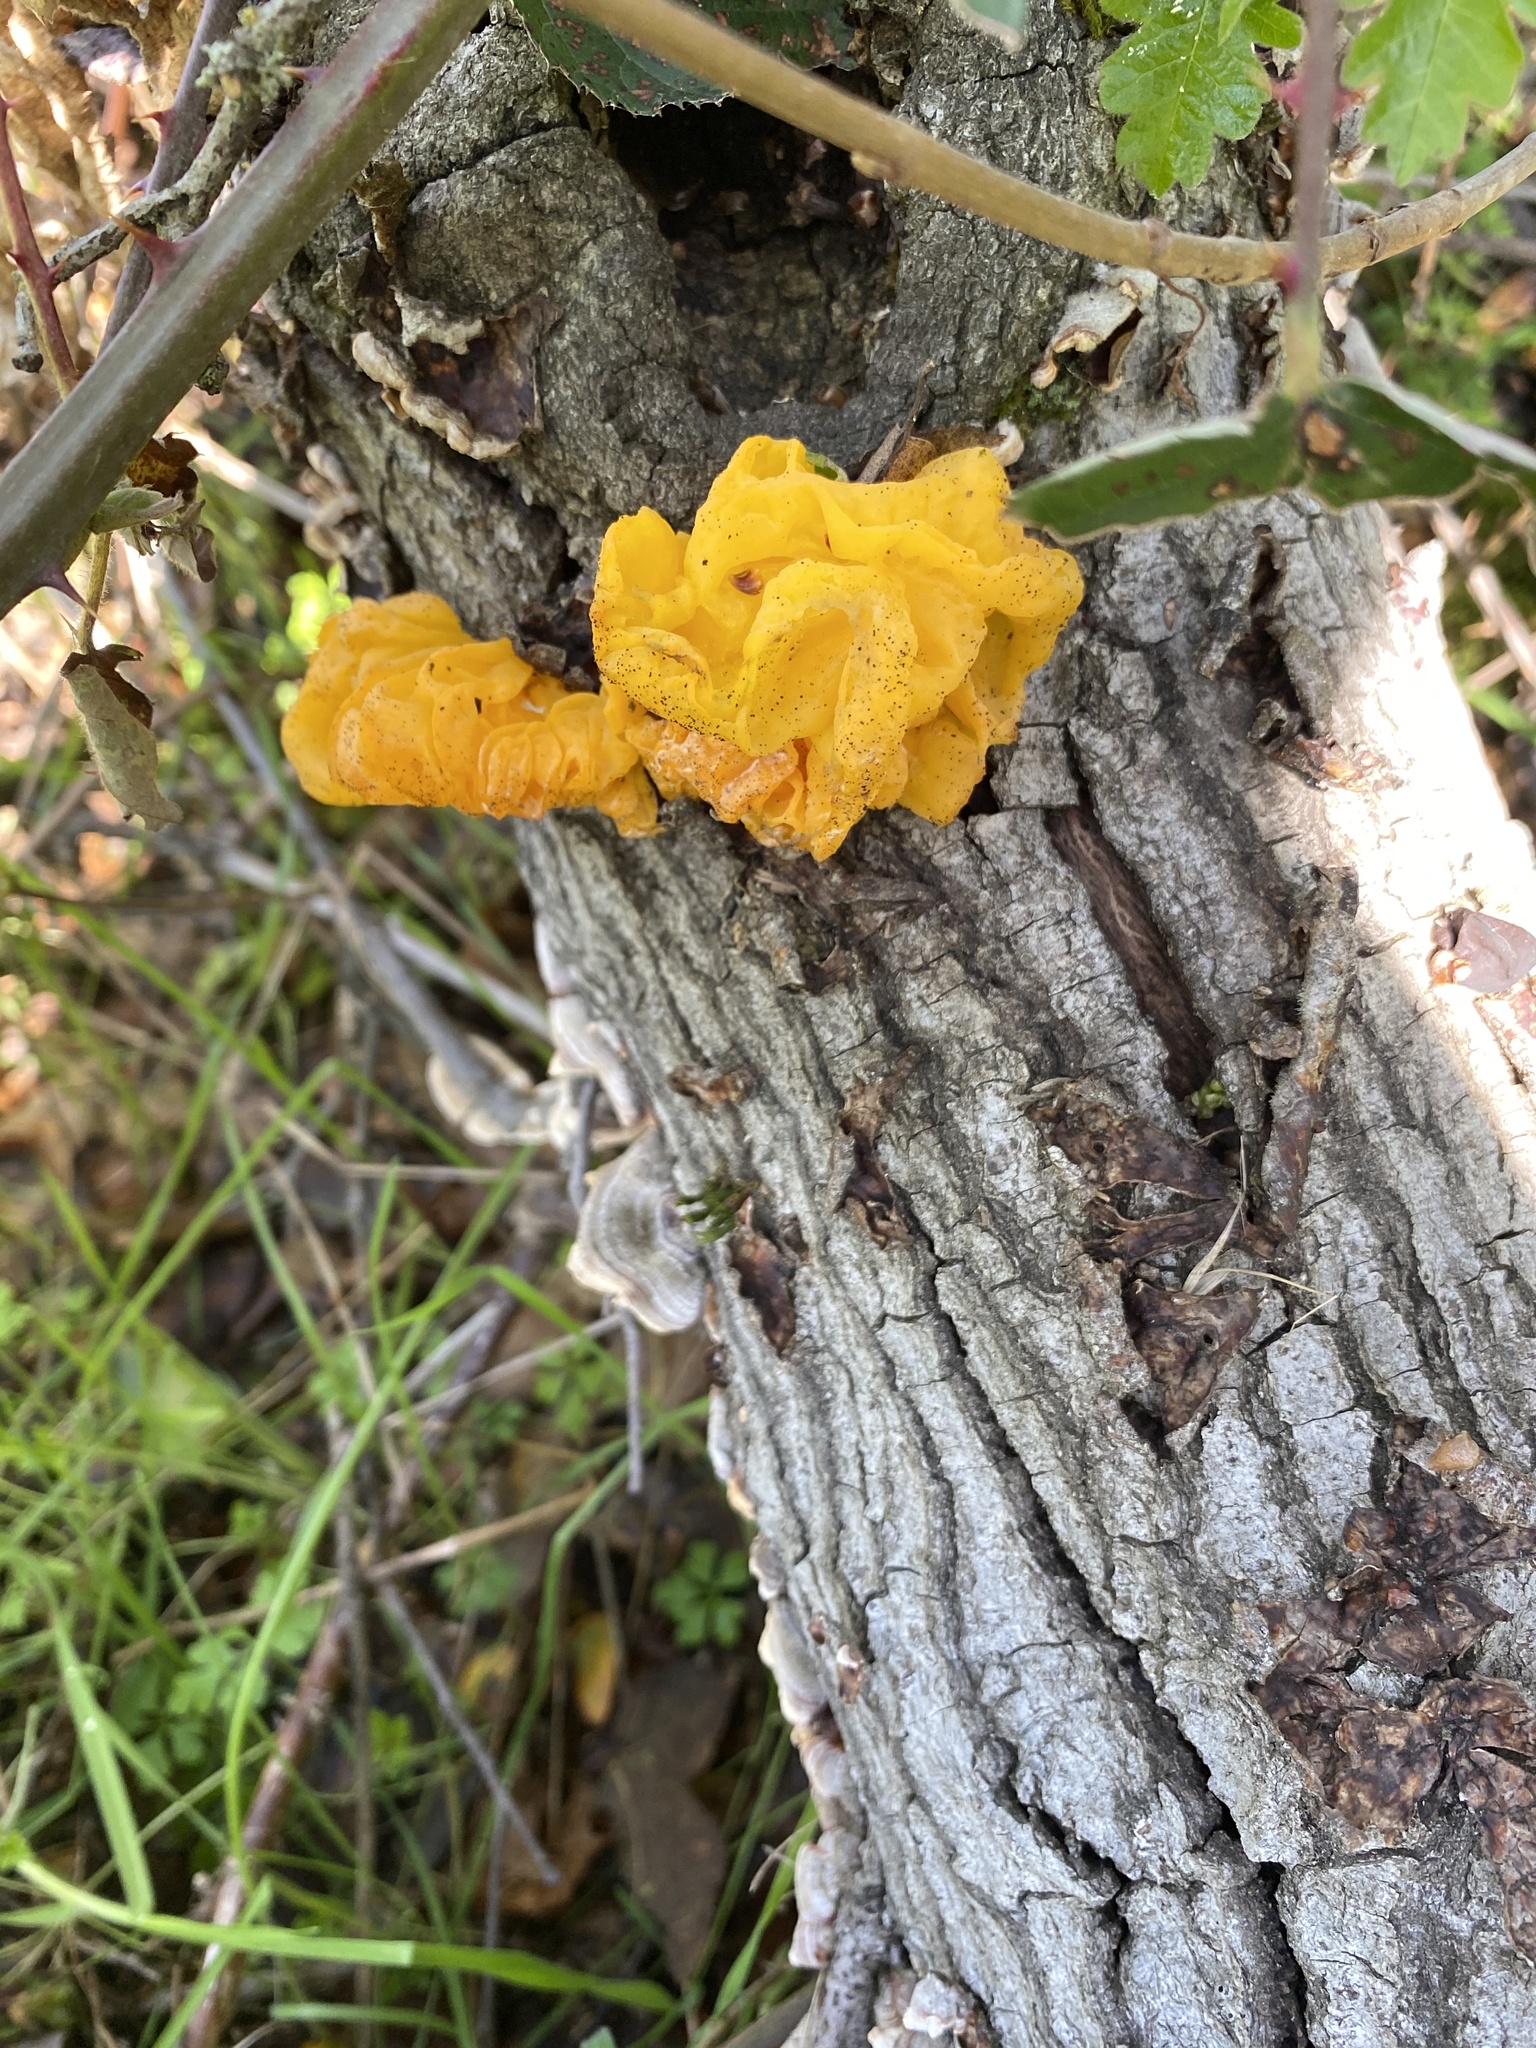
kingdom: Fungi
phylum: Basidiomycota
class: Tremellomycetes
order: Tremellales
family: Naemateliaceae
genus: Naematelia
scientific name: Naematelia aurantia
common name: Golden ear
